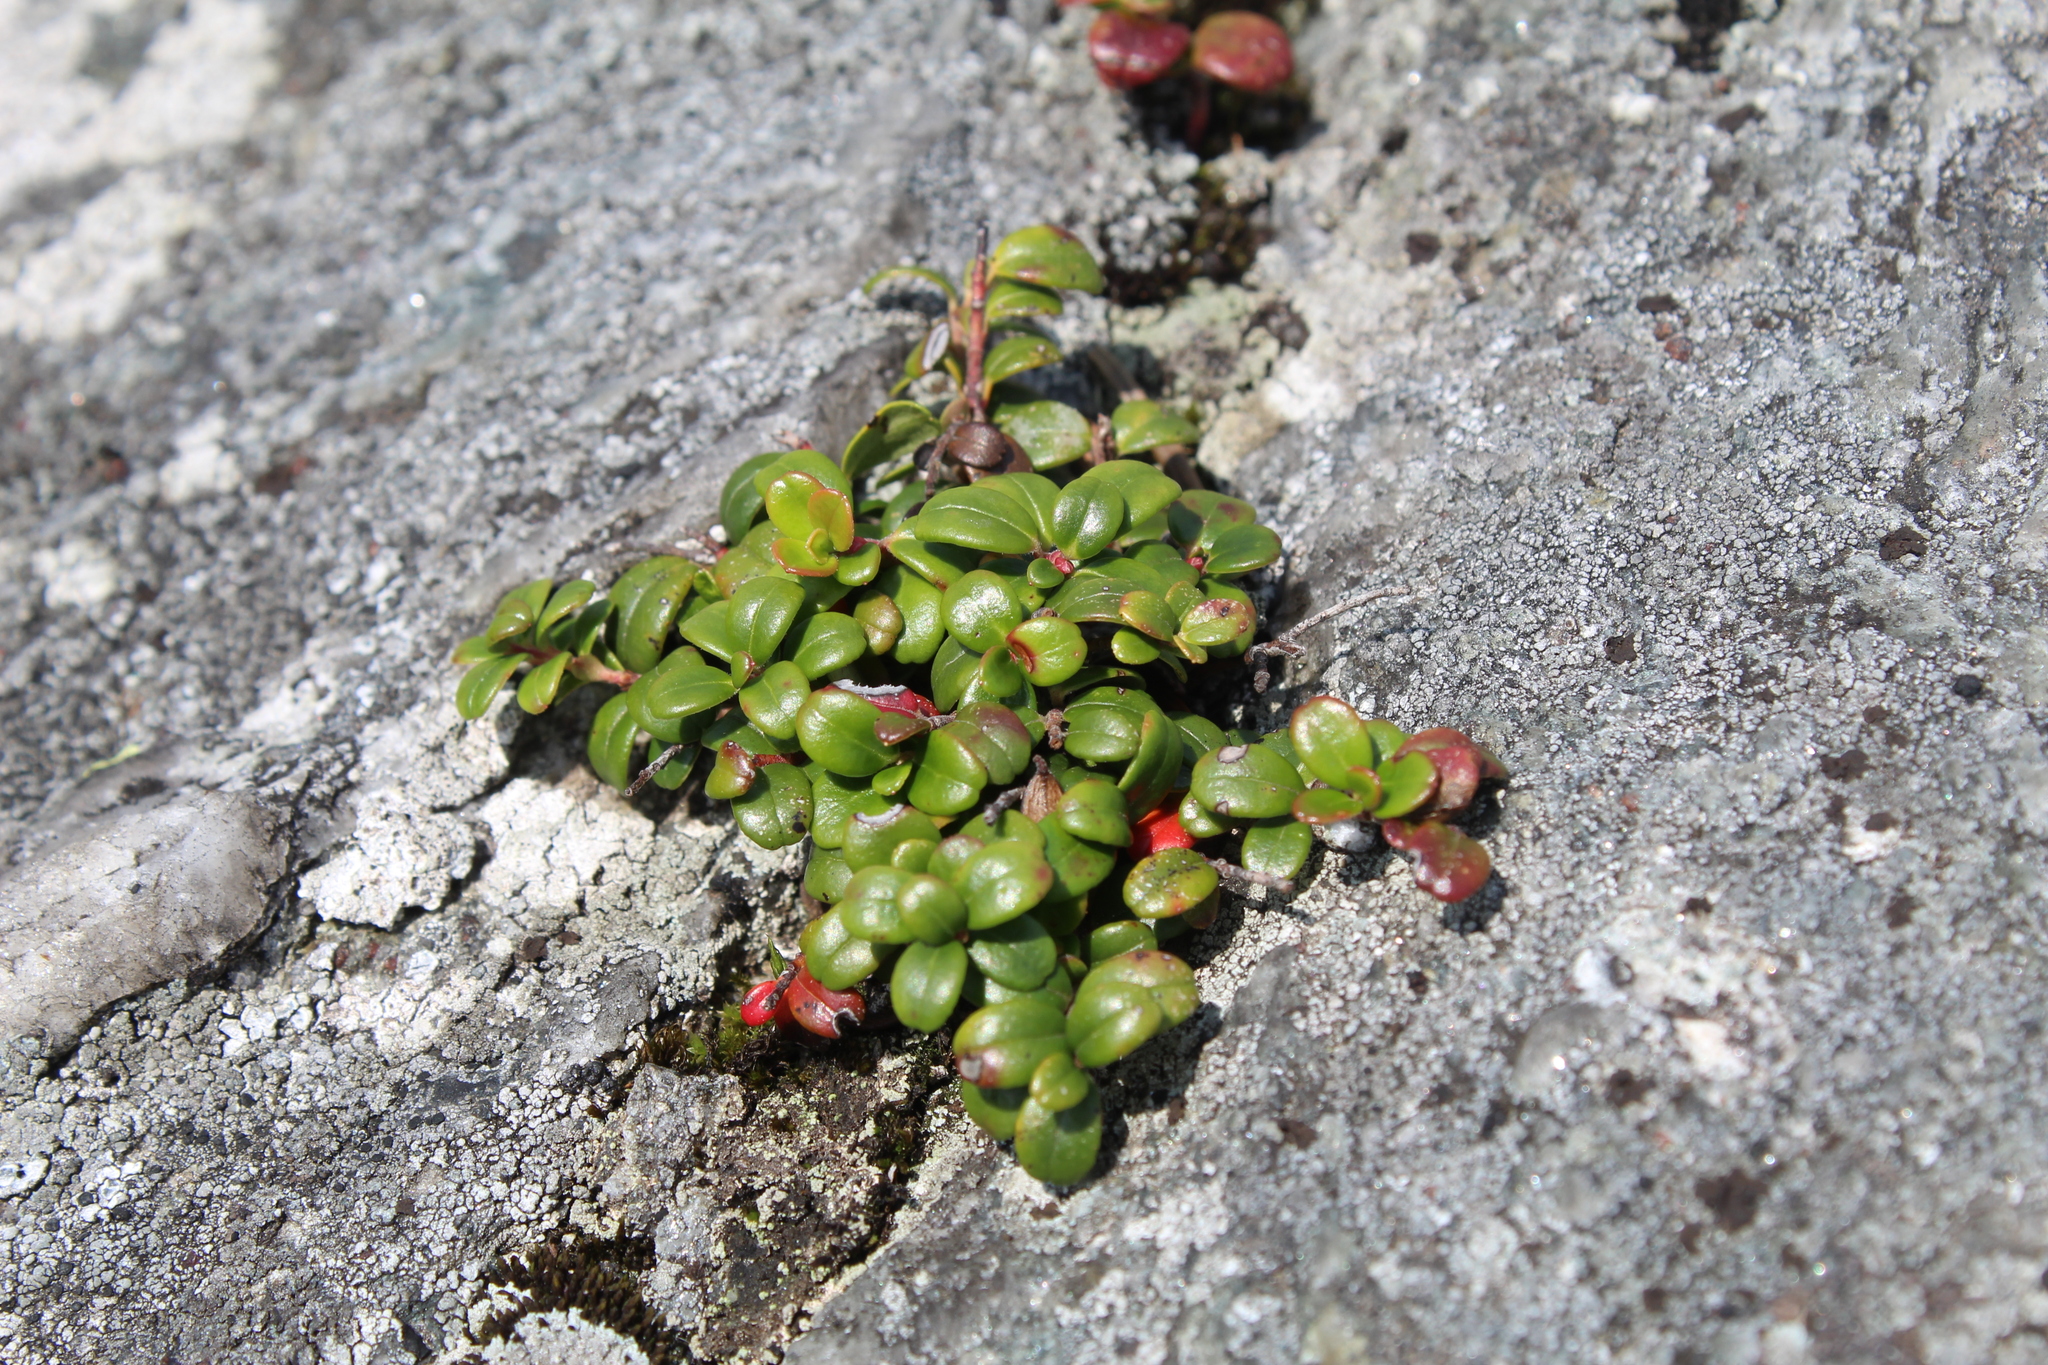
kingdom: Plantae
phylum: Tracheophyta
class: Magnoliopsida
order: Ericales
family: Ericaceae
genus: Vaccinium
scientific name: Vaccinium vitis-idaea
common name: Cowberry
